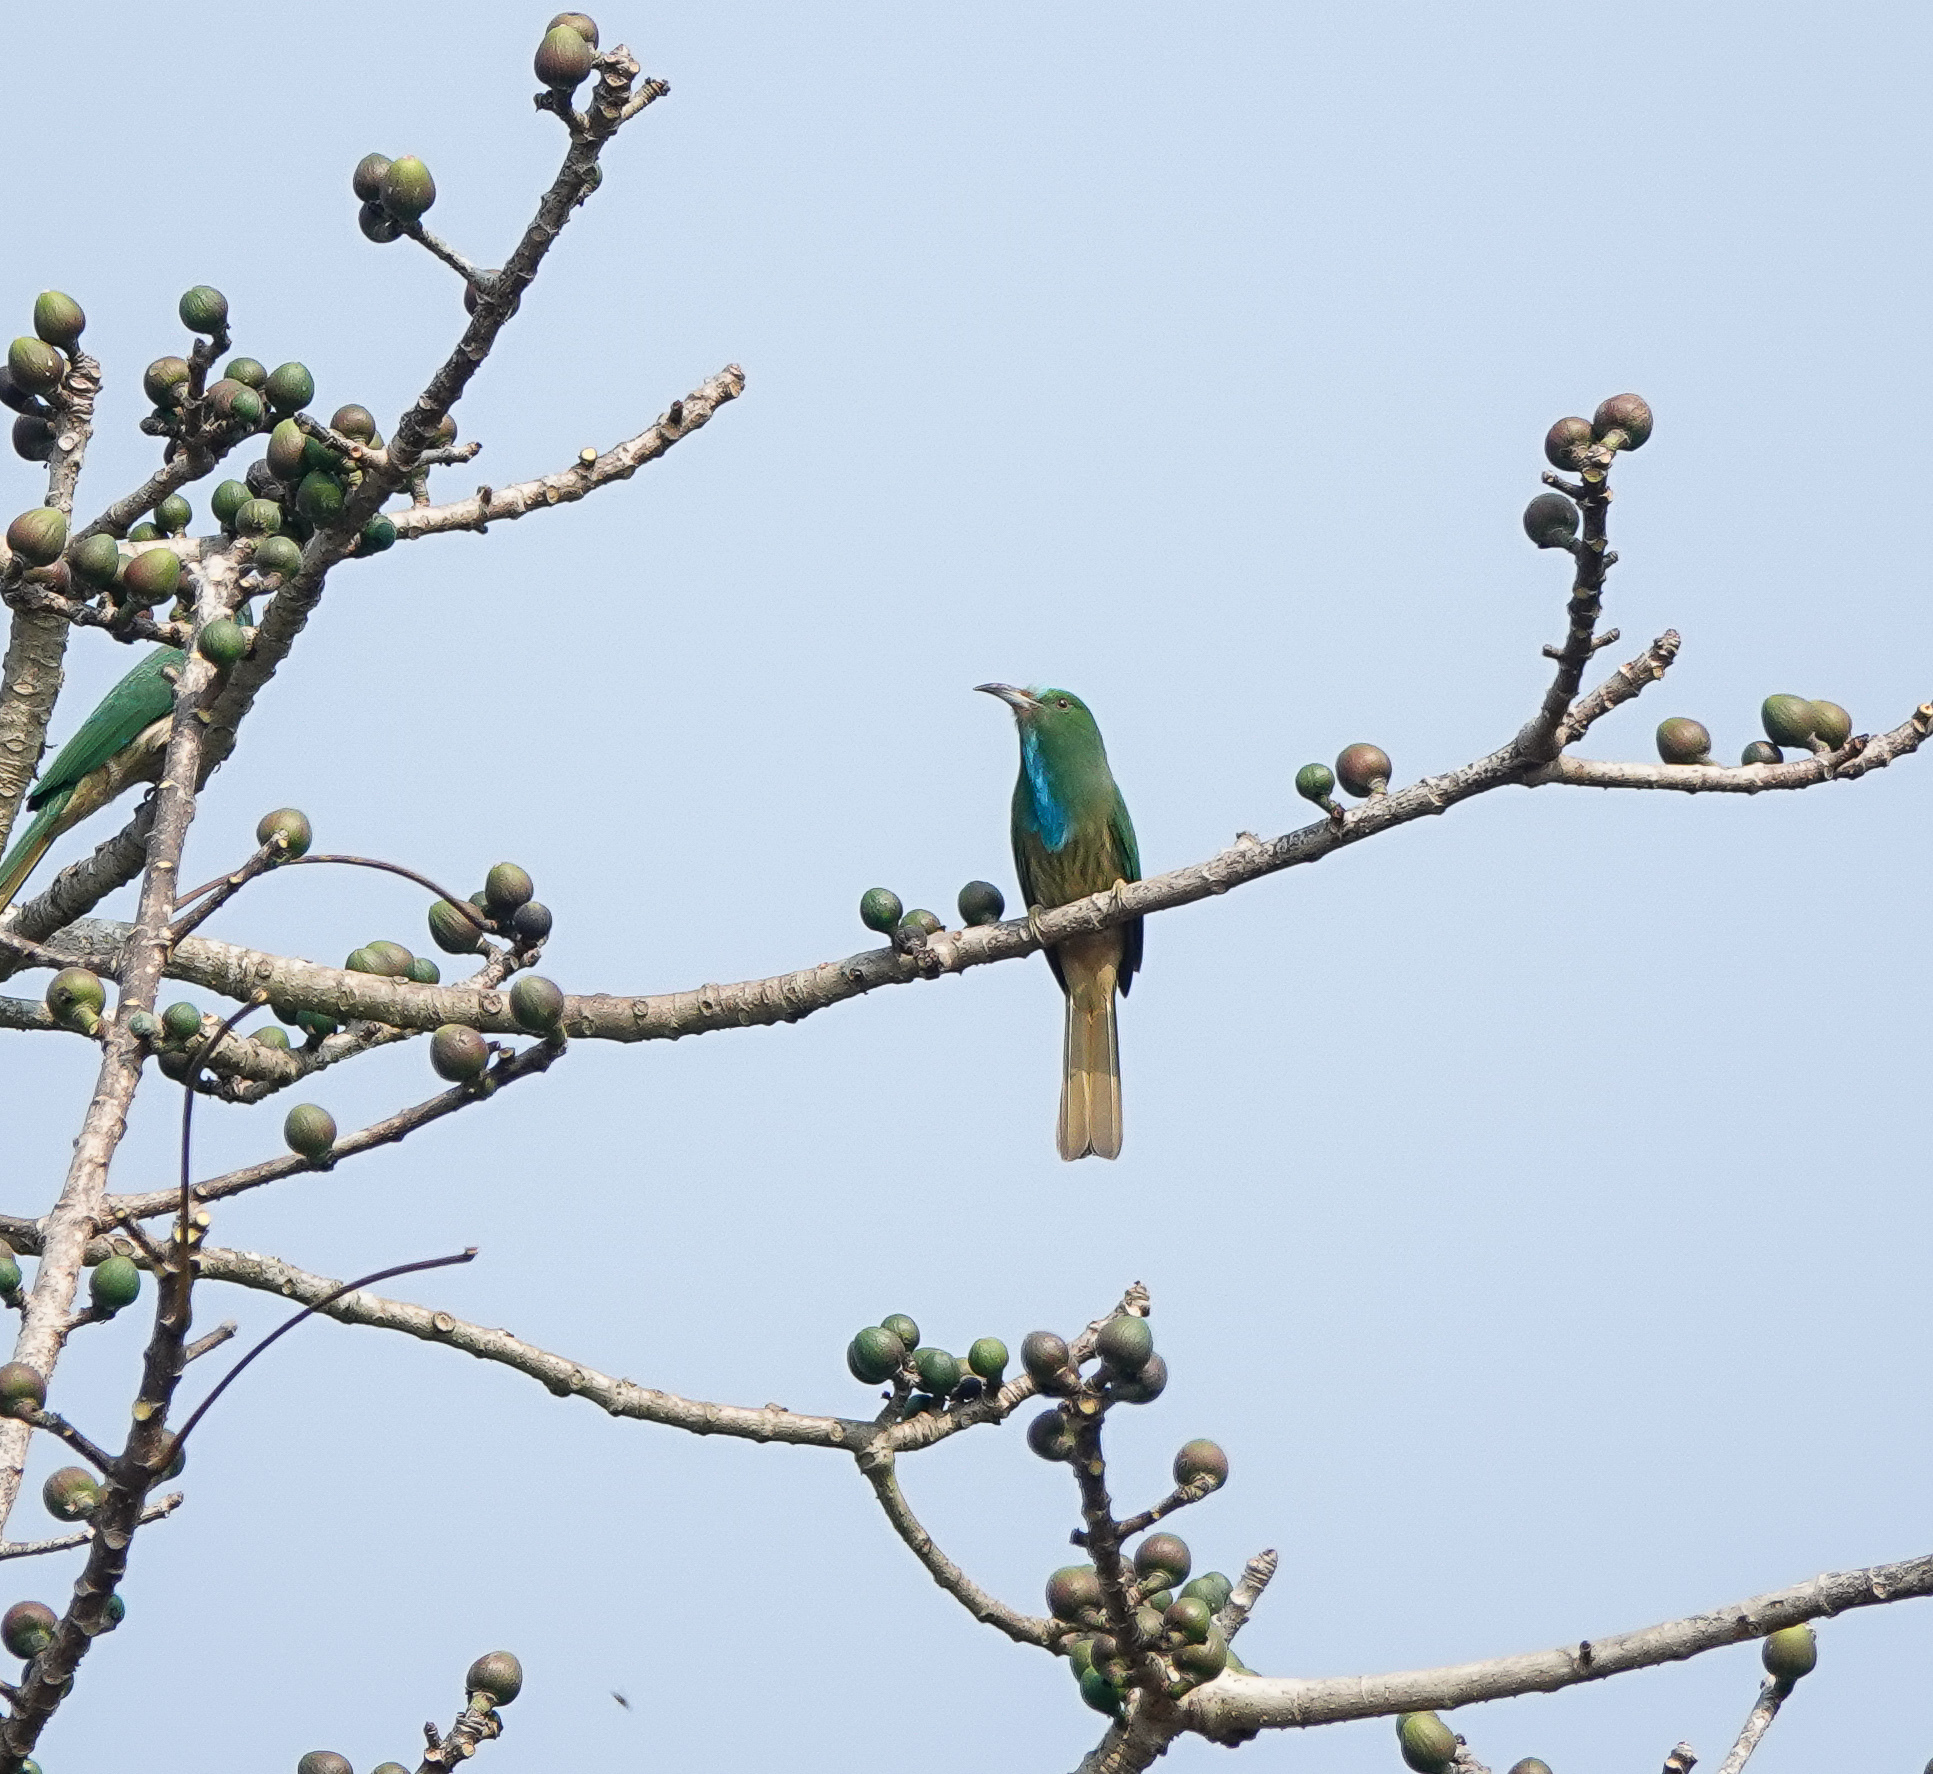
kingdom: Animalia
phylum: Chordata
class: Aves
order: Coraciiformes
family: Meropidae
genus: Nyctyornis
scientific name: Nyctyornis athertoni
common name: Blue-bearded bee-eater
